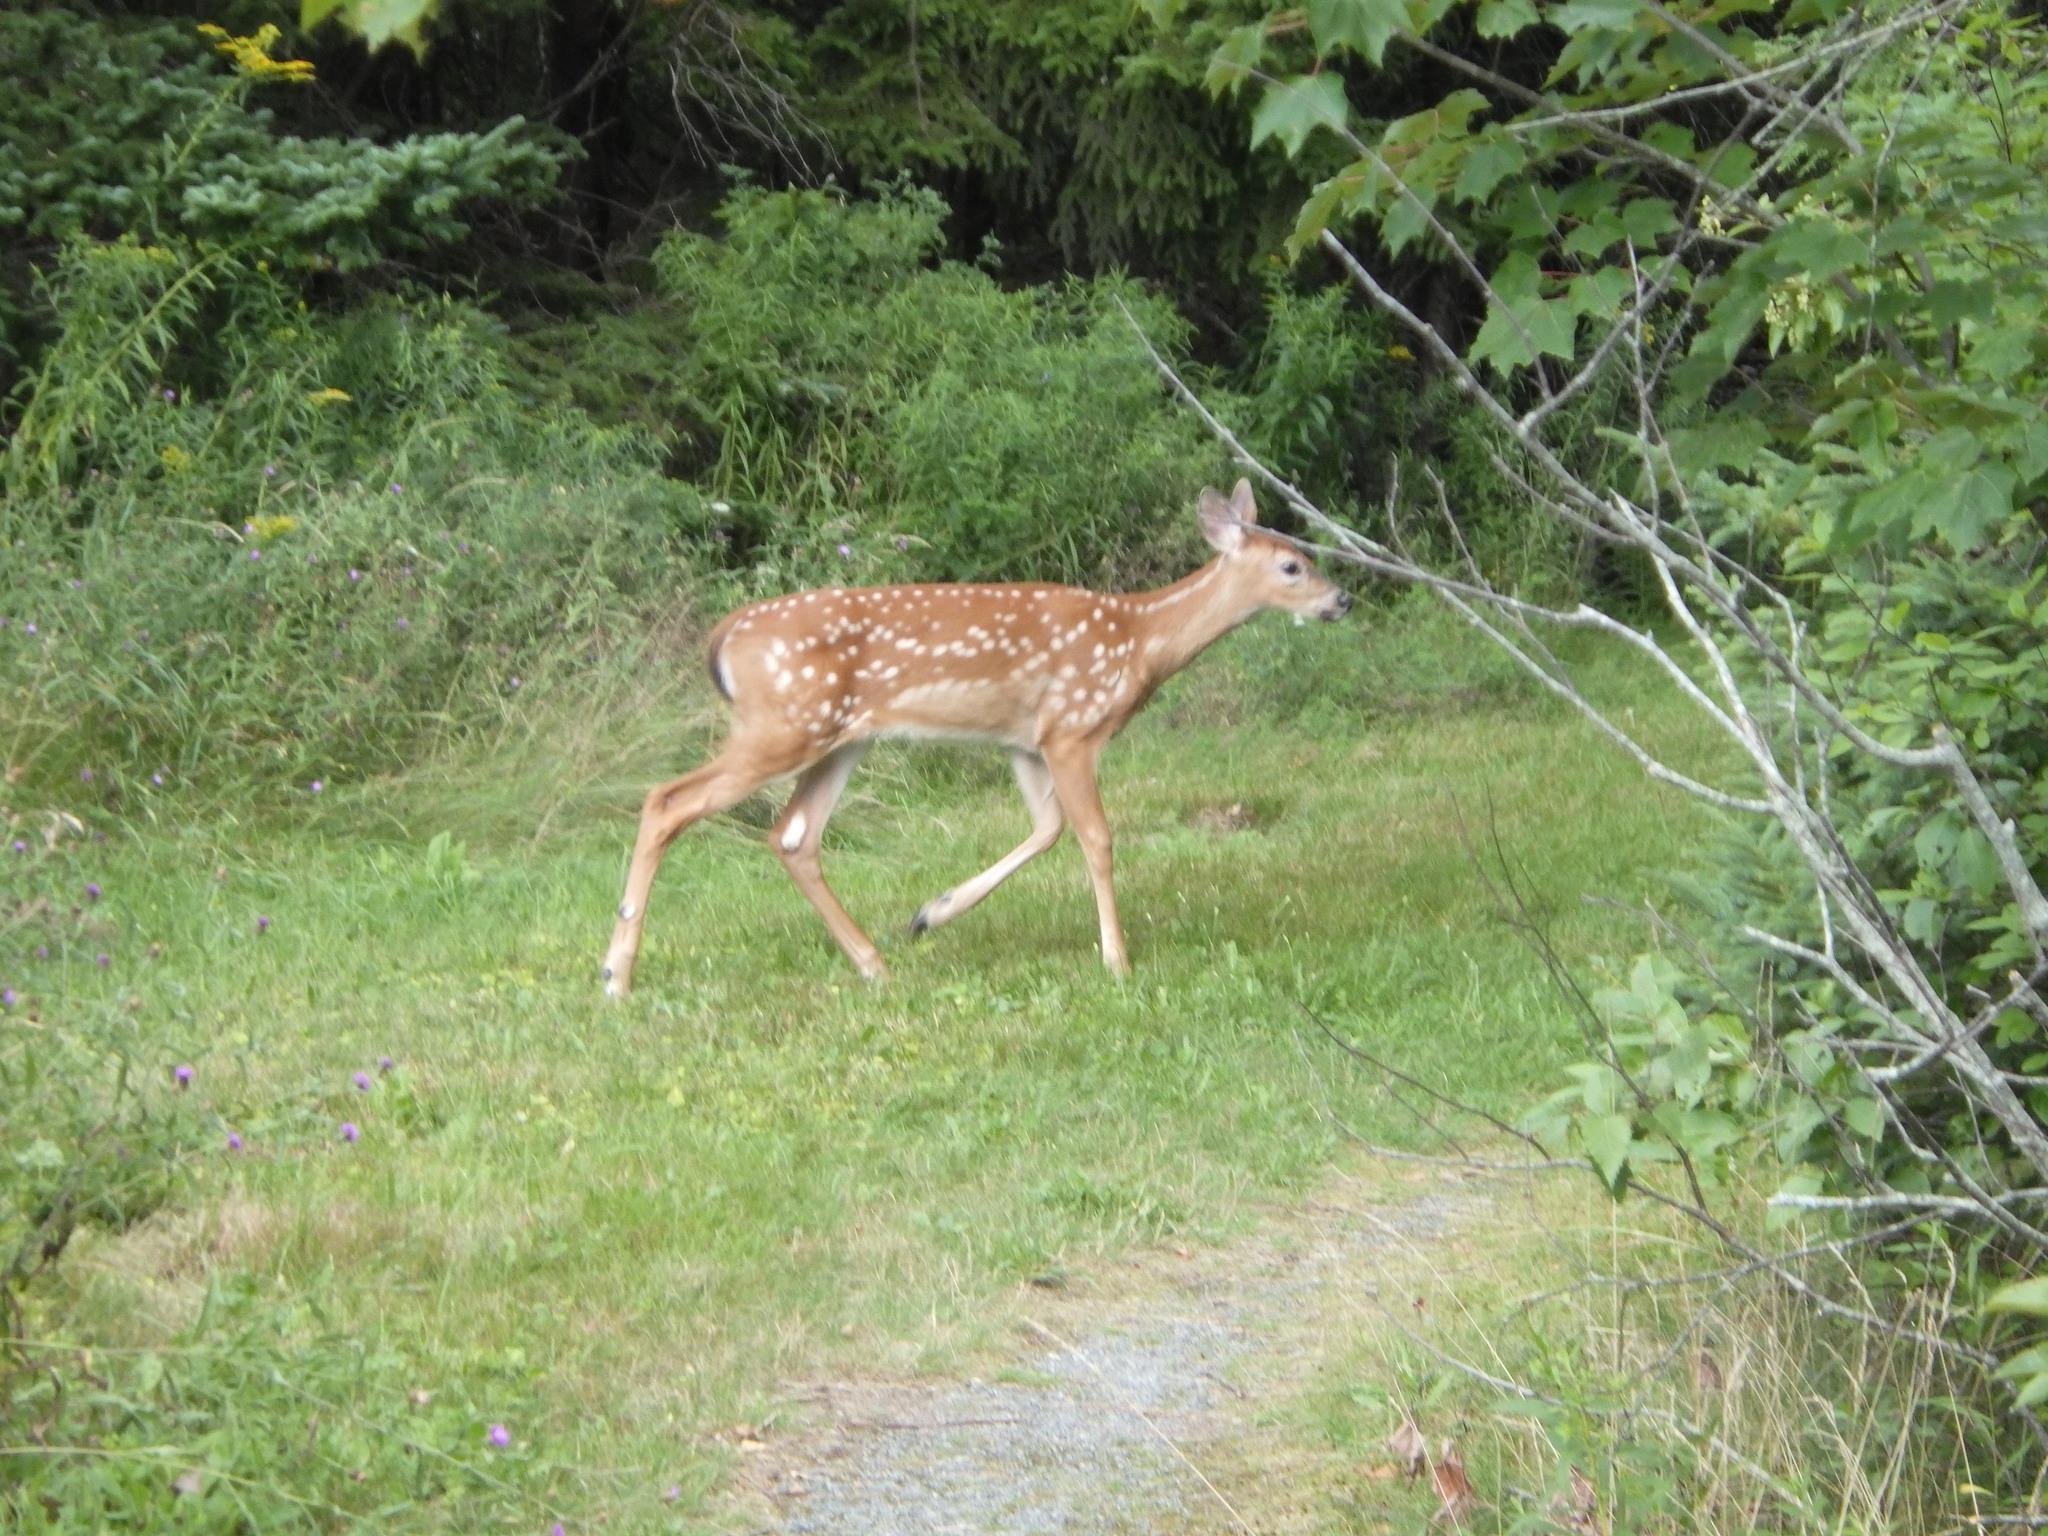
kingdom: Animalia
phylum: Chordata
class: Mammalia
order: Artiodactyla
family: Cervidae
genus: Odocoileus
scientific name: Odocoileus virginianus
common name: White-tailed deer
